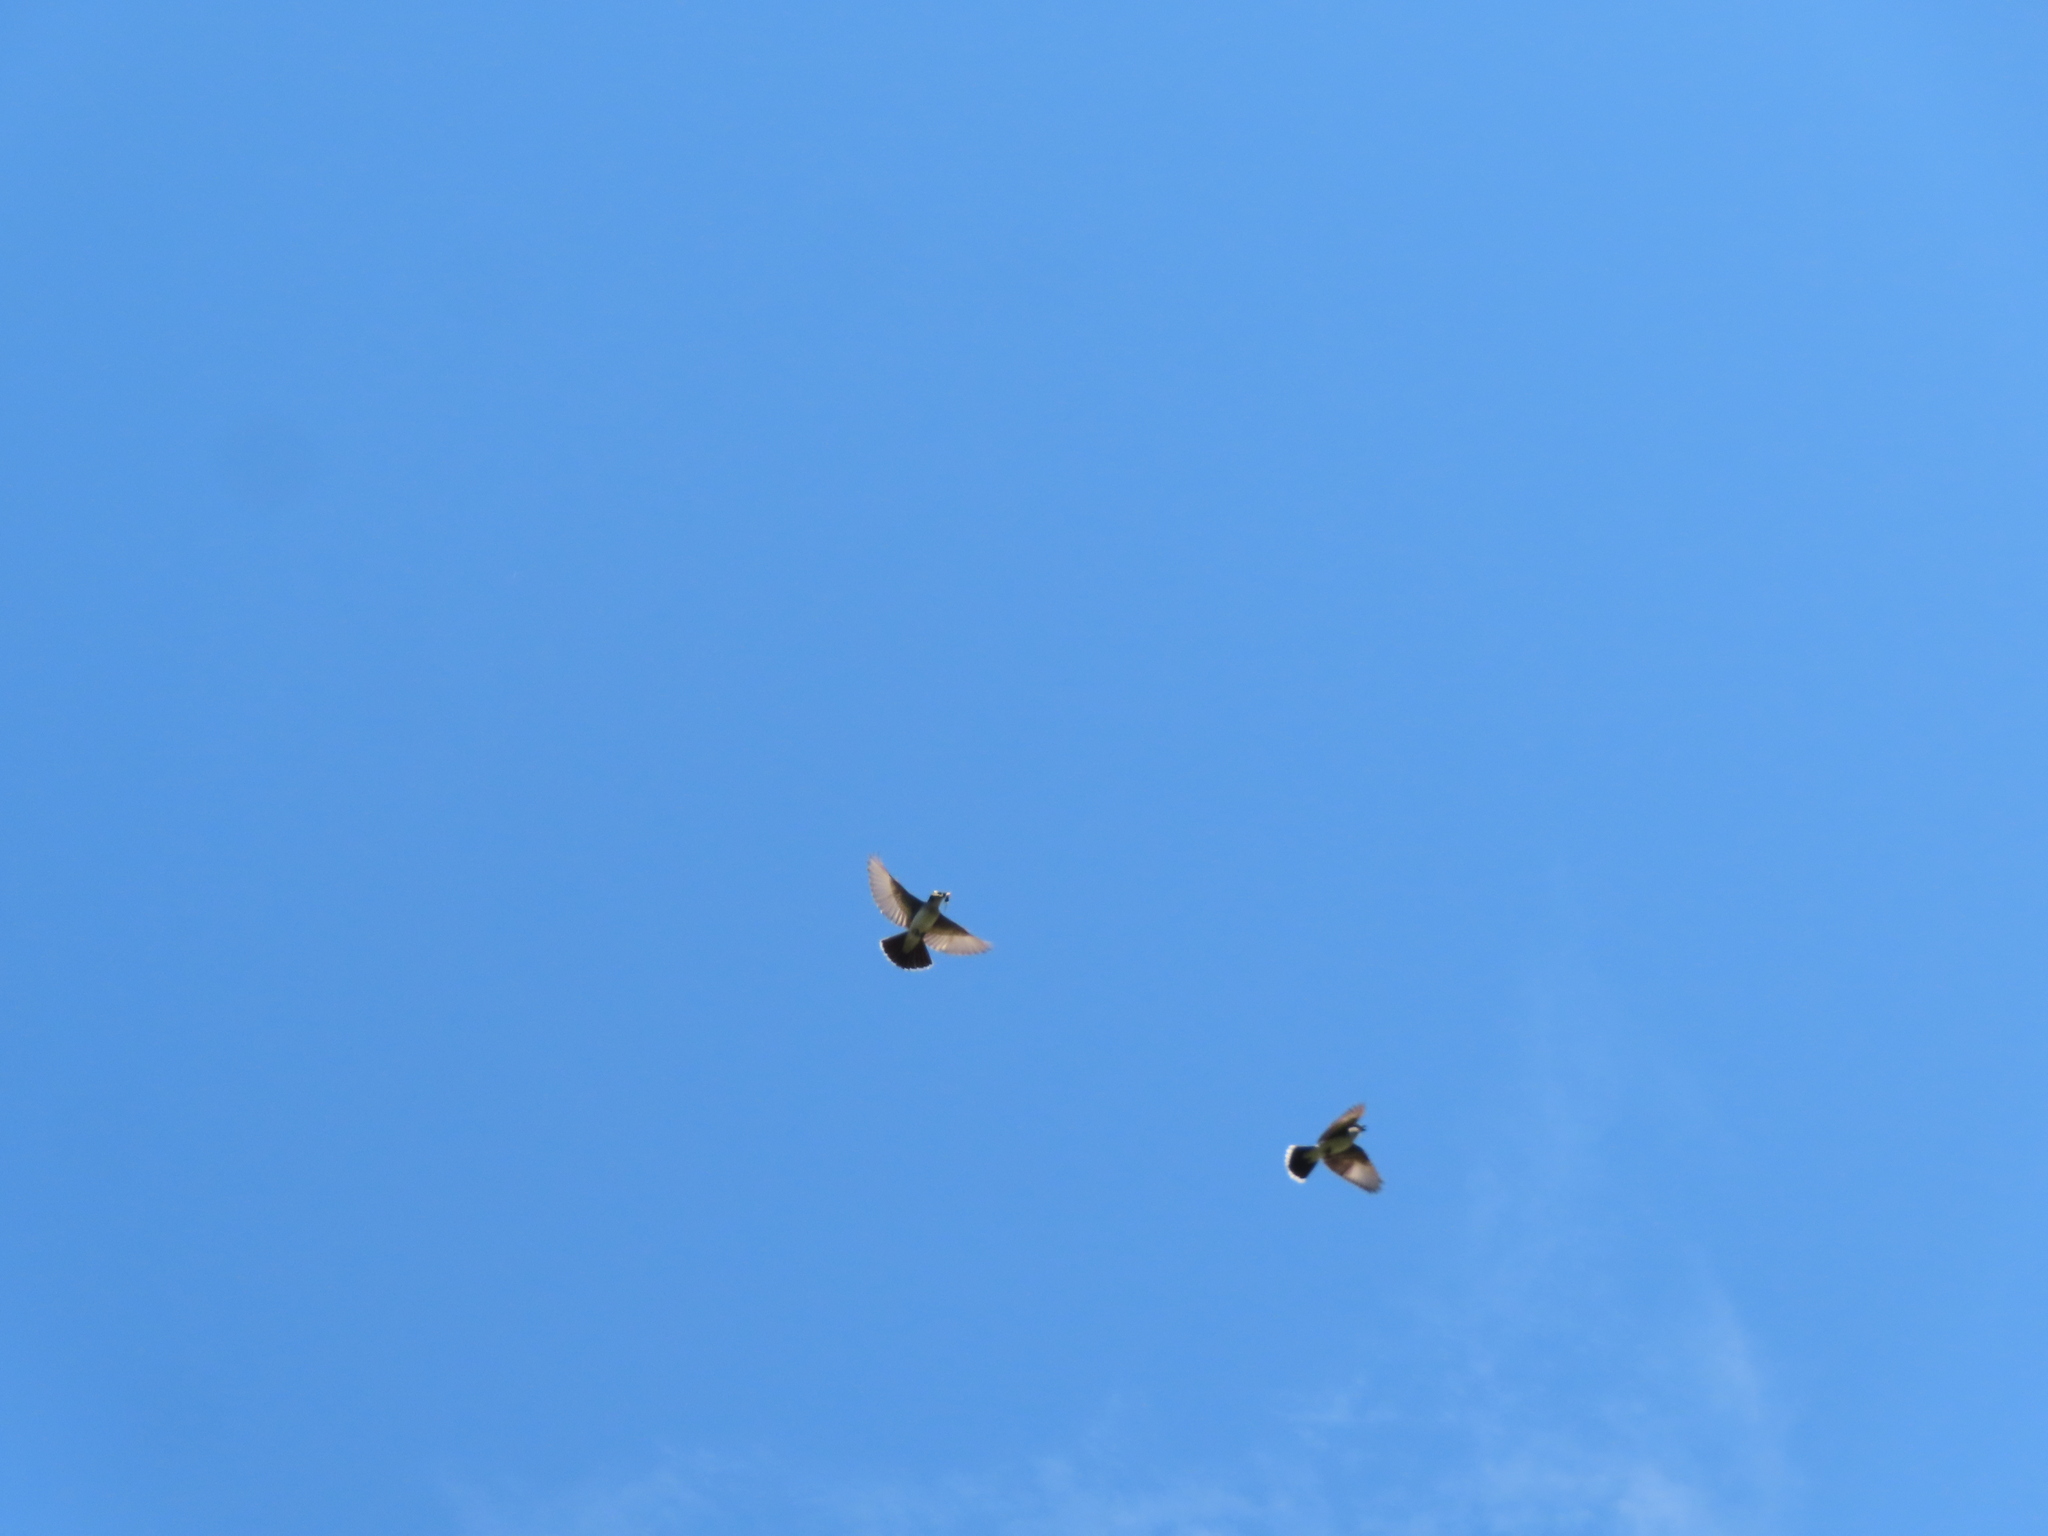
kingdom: Animalia
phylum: Chordata
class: Aves
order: Passeriformes
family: Tyrannidae
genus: Tyrannus
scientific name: Tyrannus tyrannus
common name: Eastern kingbird
